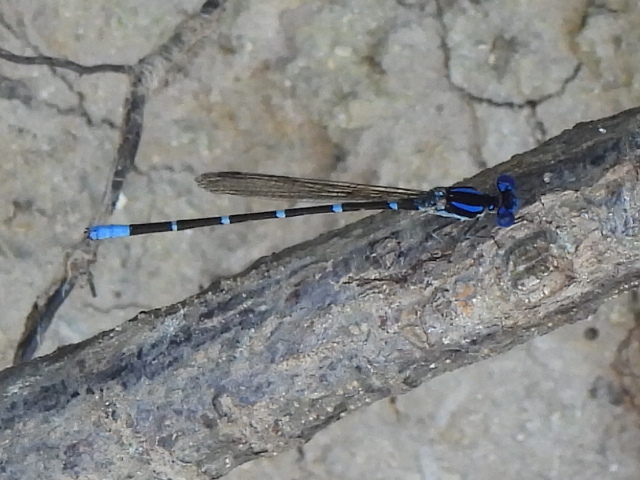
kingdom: Animalia
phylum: Arthropoda
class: Insecta
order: Odonata
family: Coenagrionidae
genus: Argia
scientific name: Argia sedula
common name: Blue-ringed dancer
